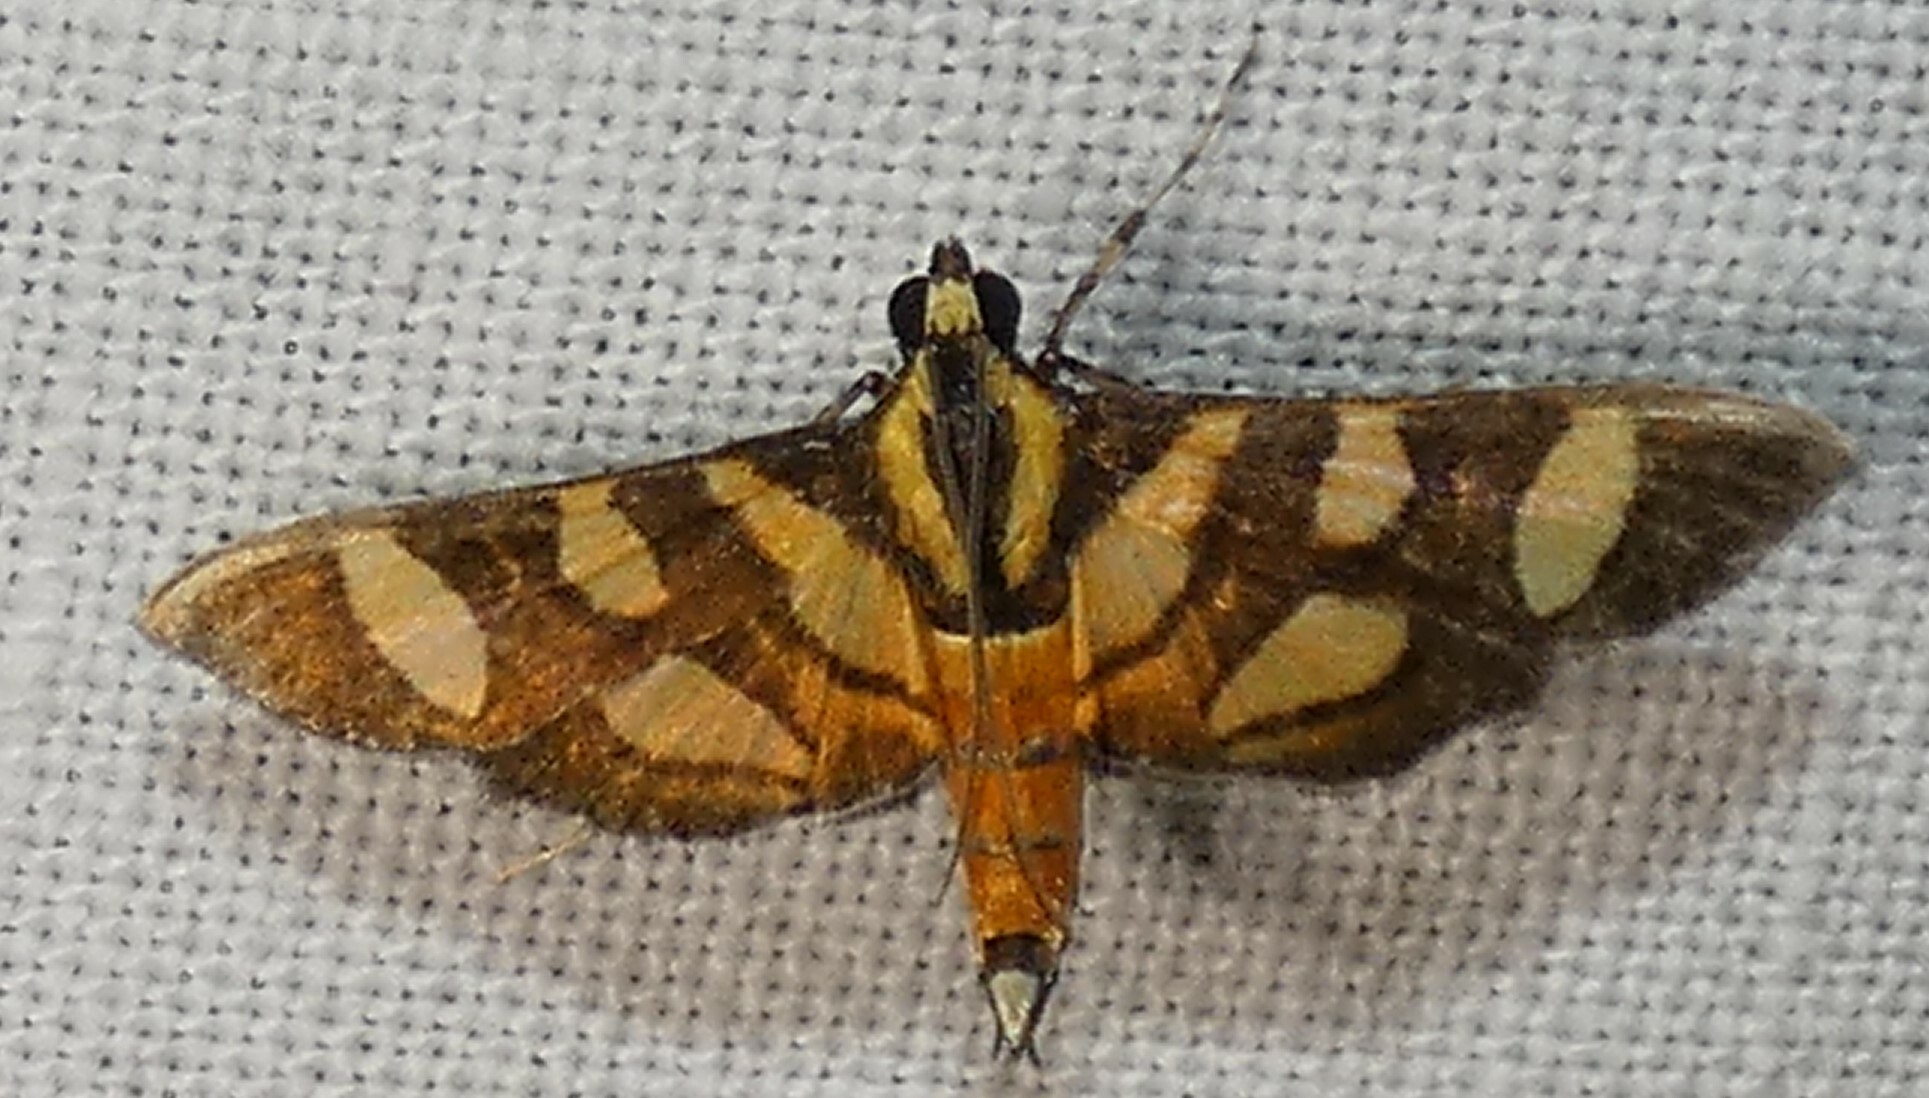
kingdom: Animalia
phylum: Arthropoda
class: Insecta
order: Lepidoptera
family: Crambidae
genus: Syngamia
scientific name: Syngamia florella
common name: Orange-spotted flower moth
